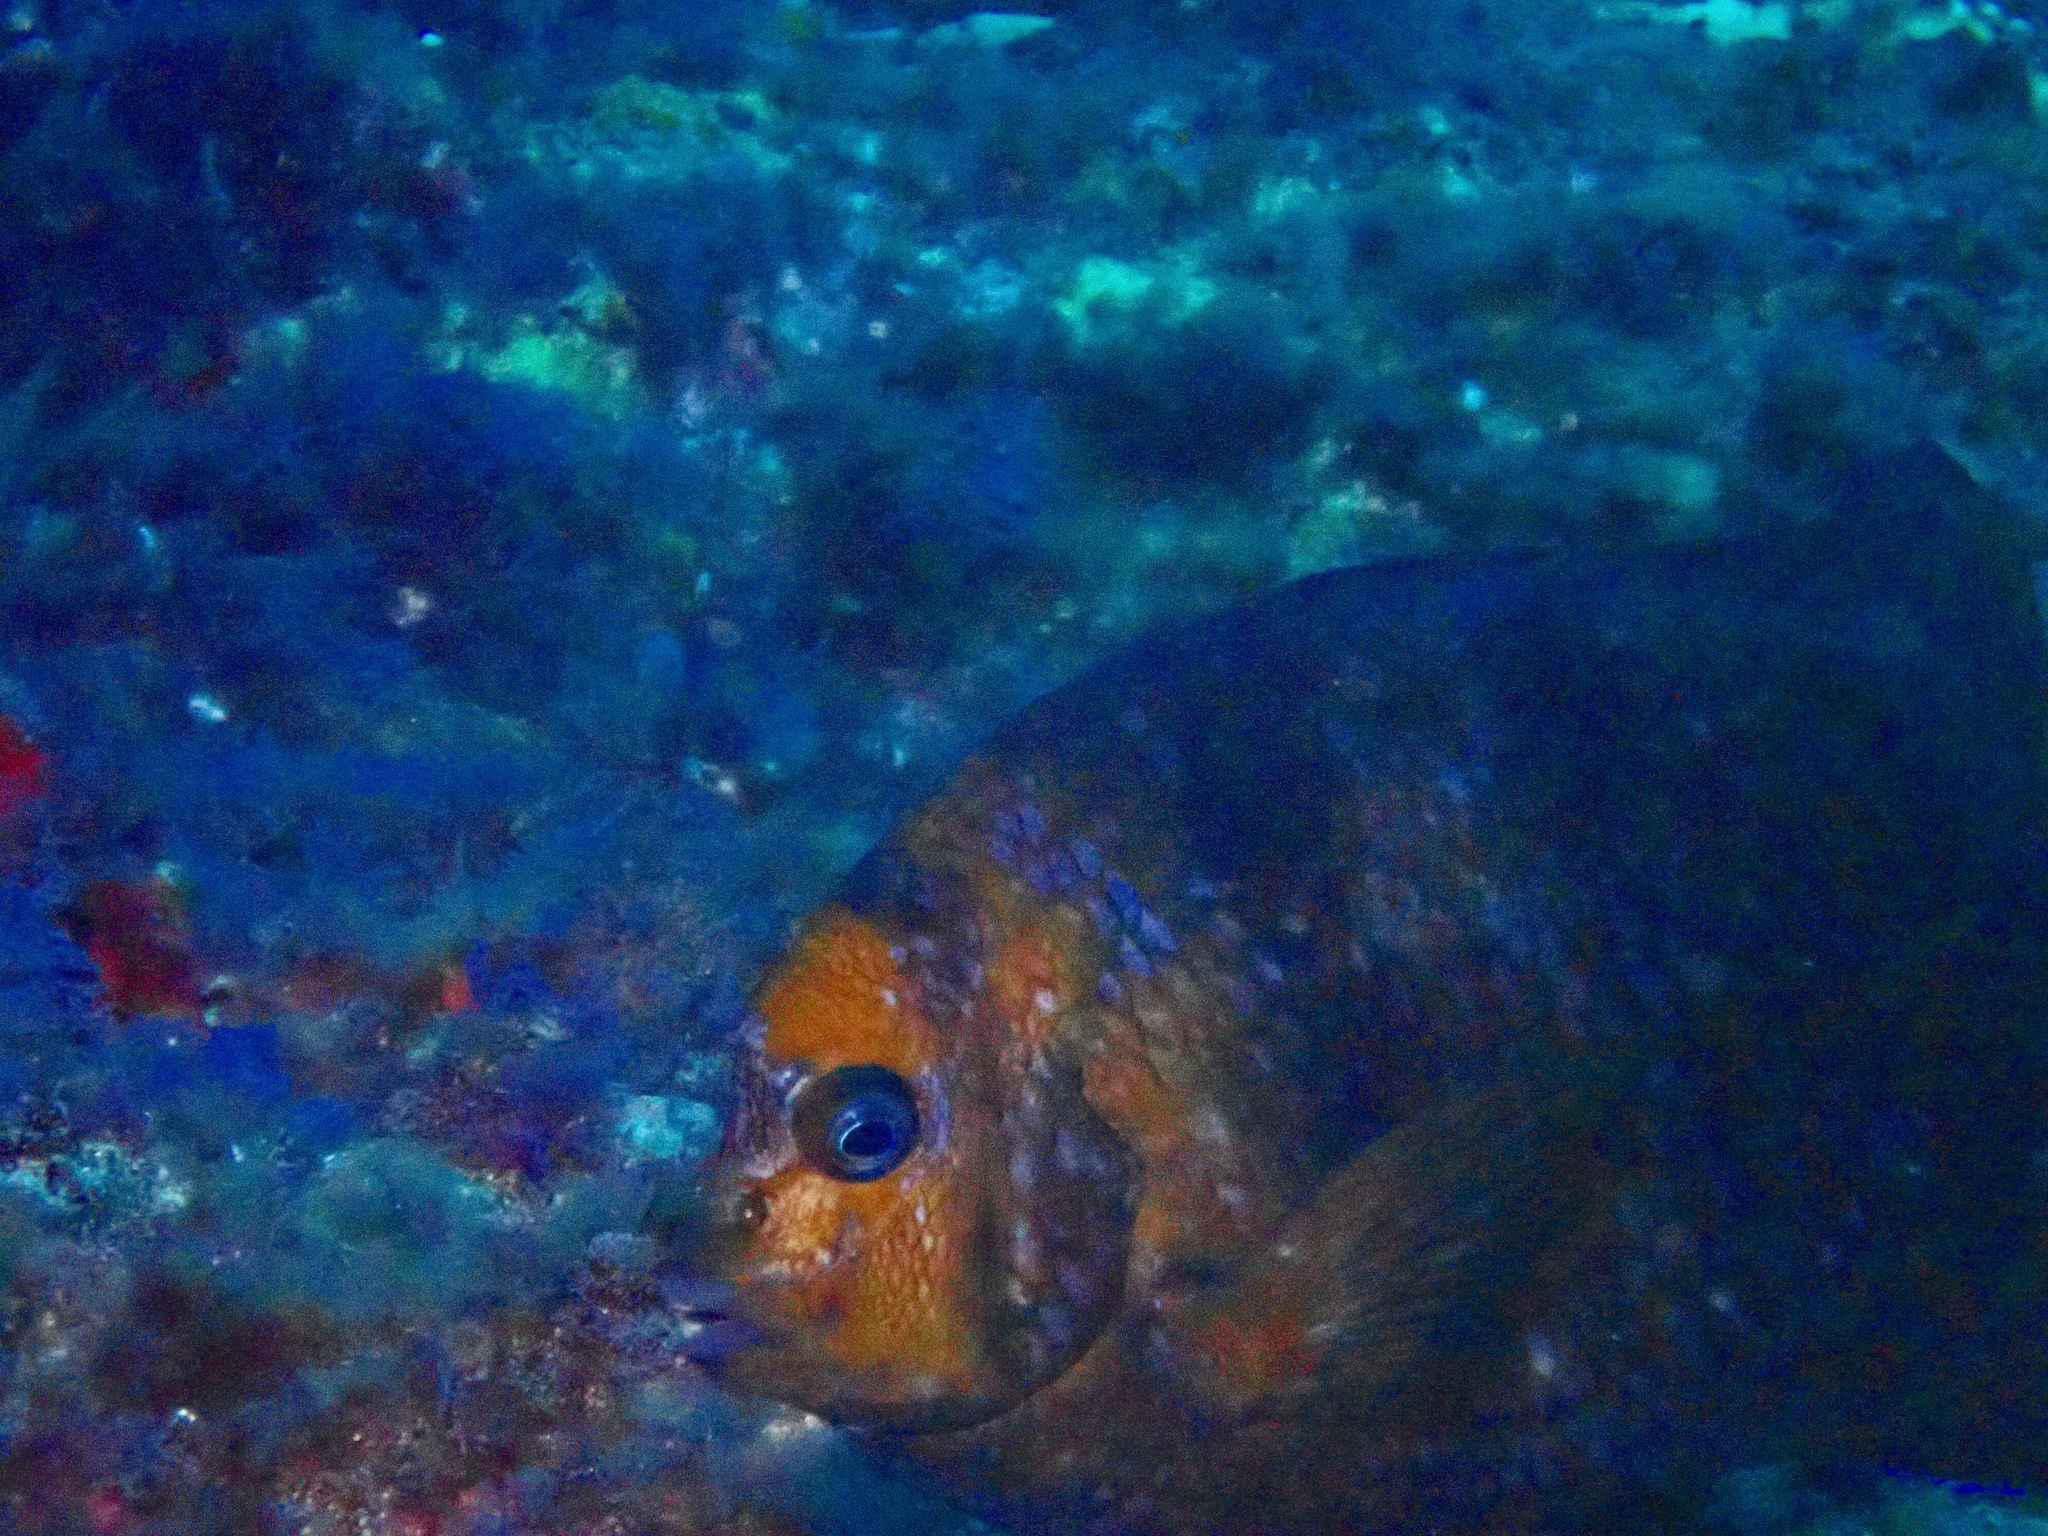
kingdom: Animalia
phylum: Chordata
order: Perciformes
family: Pomacentridae
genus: Parma
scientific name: Parma polylepis
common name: Banded parma
